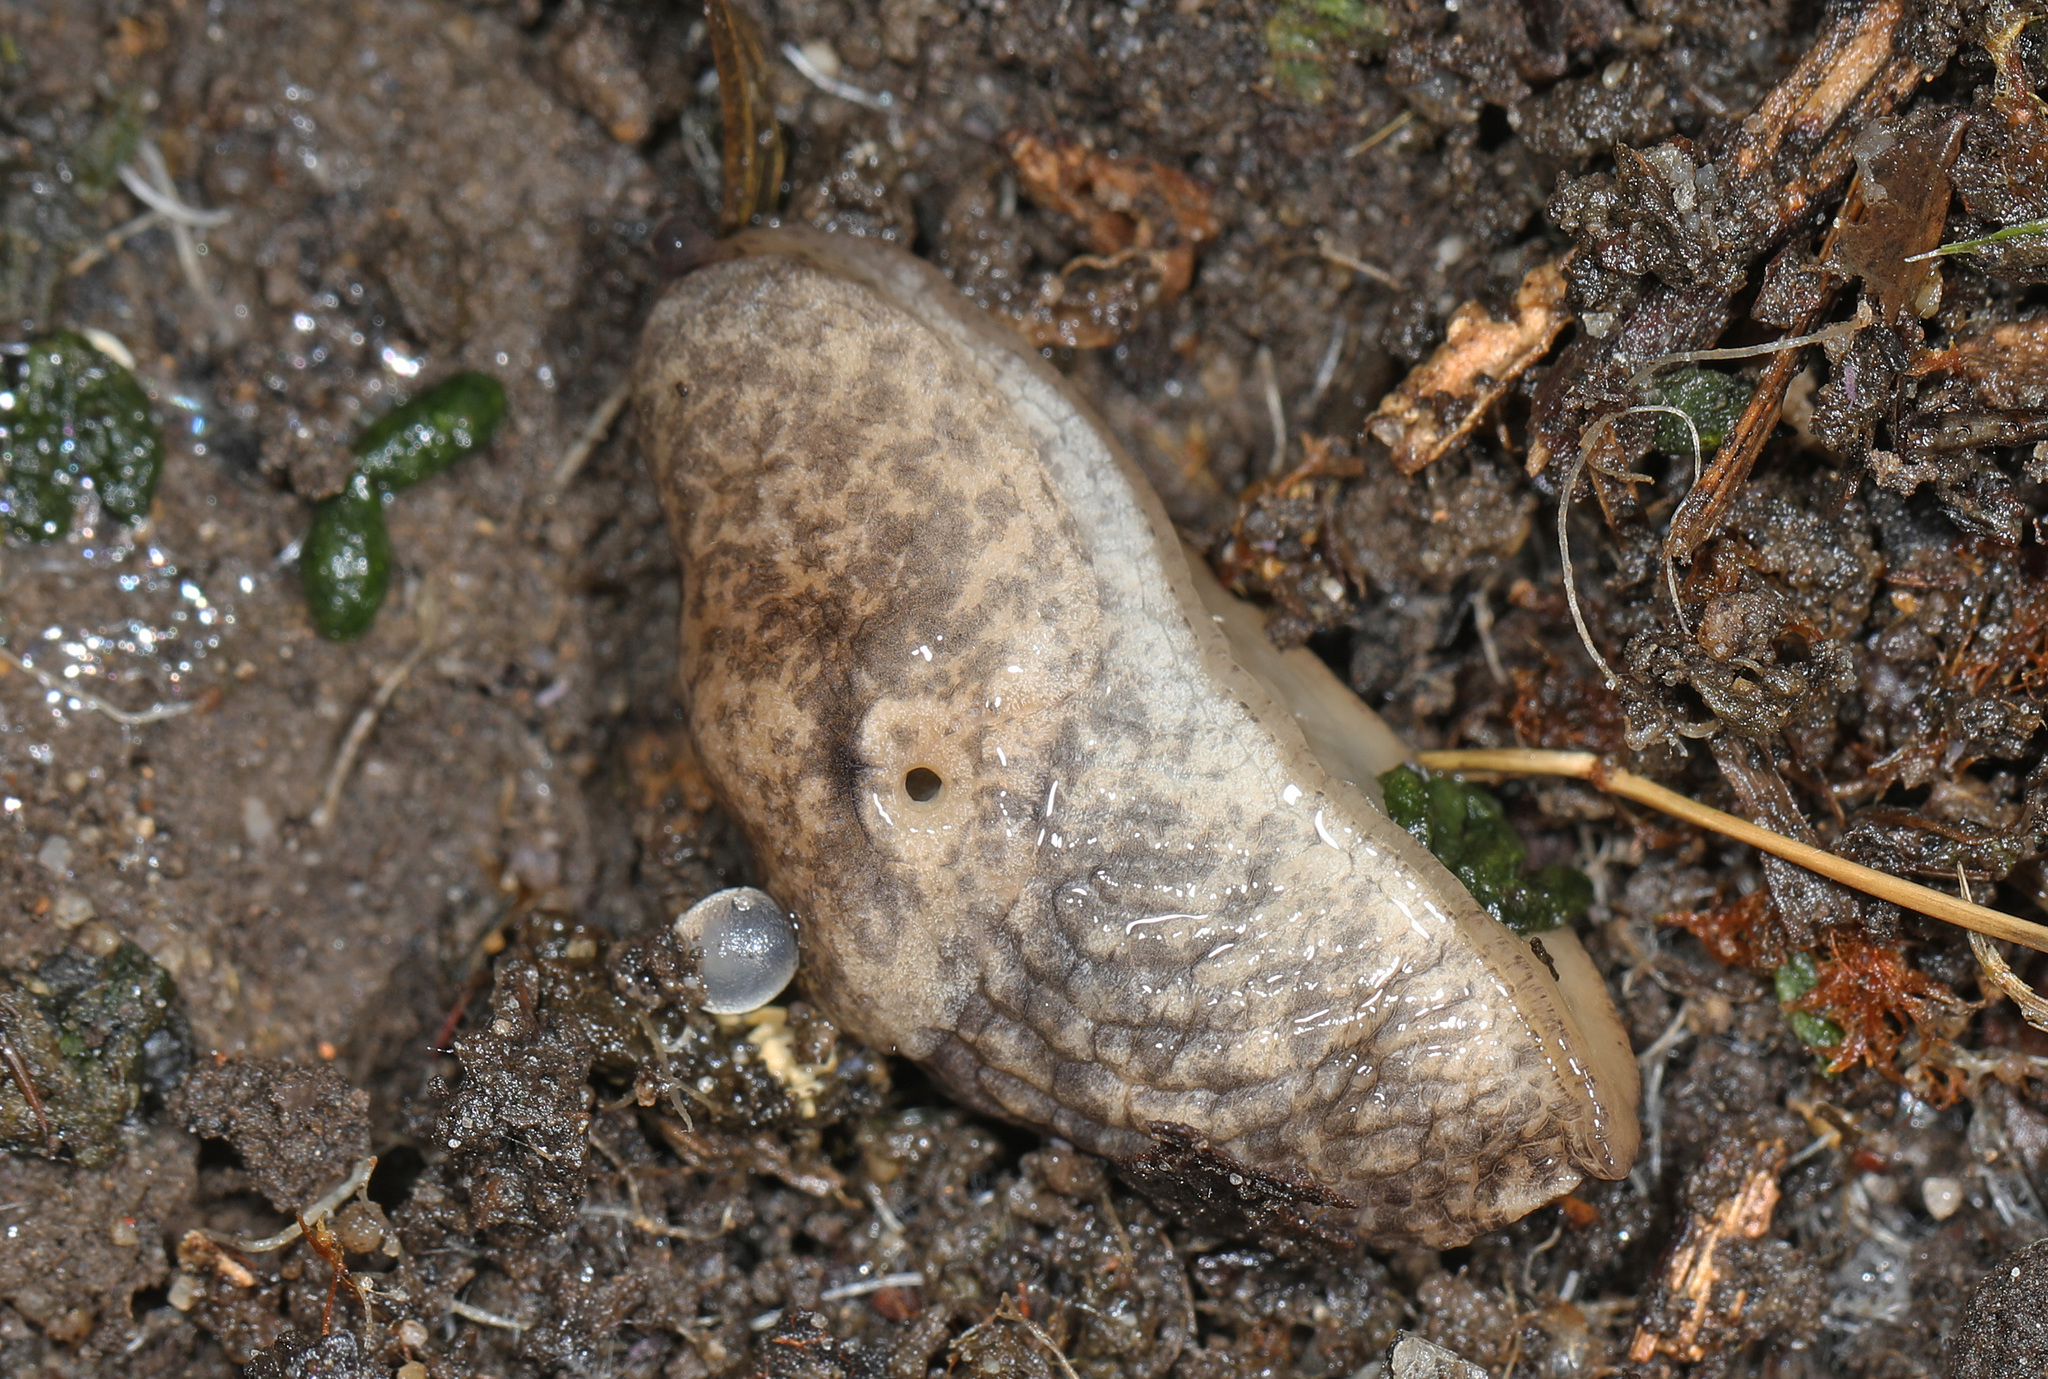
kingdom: Animalia
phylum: Mollusca
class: Gastropoda
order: Stylommatophora
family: Agriolimacidae
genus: Deroceras
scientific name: Deroceras reticulatum
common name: Gray field slug
